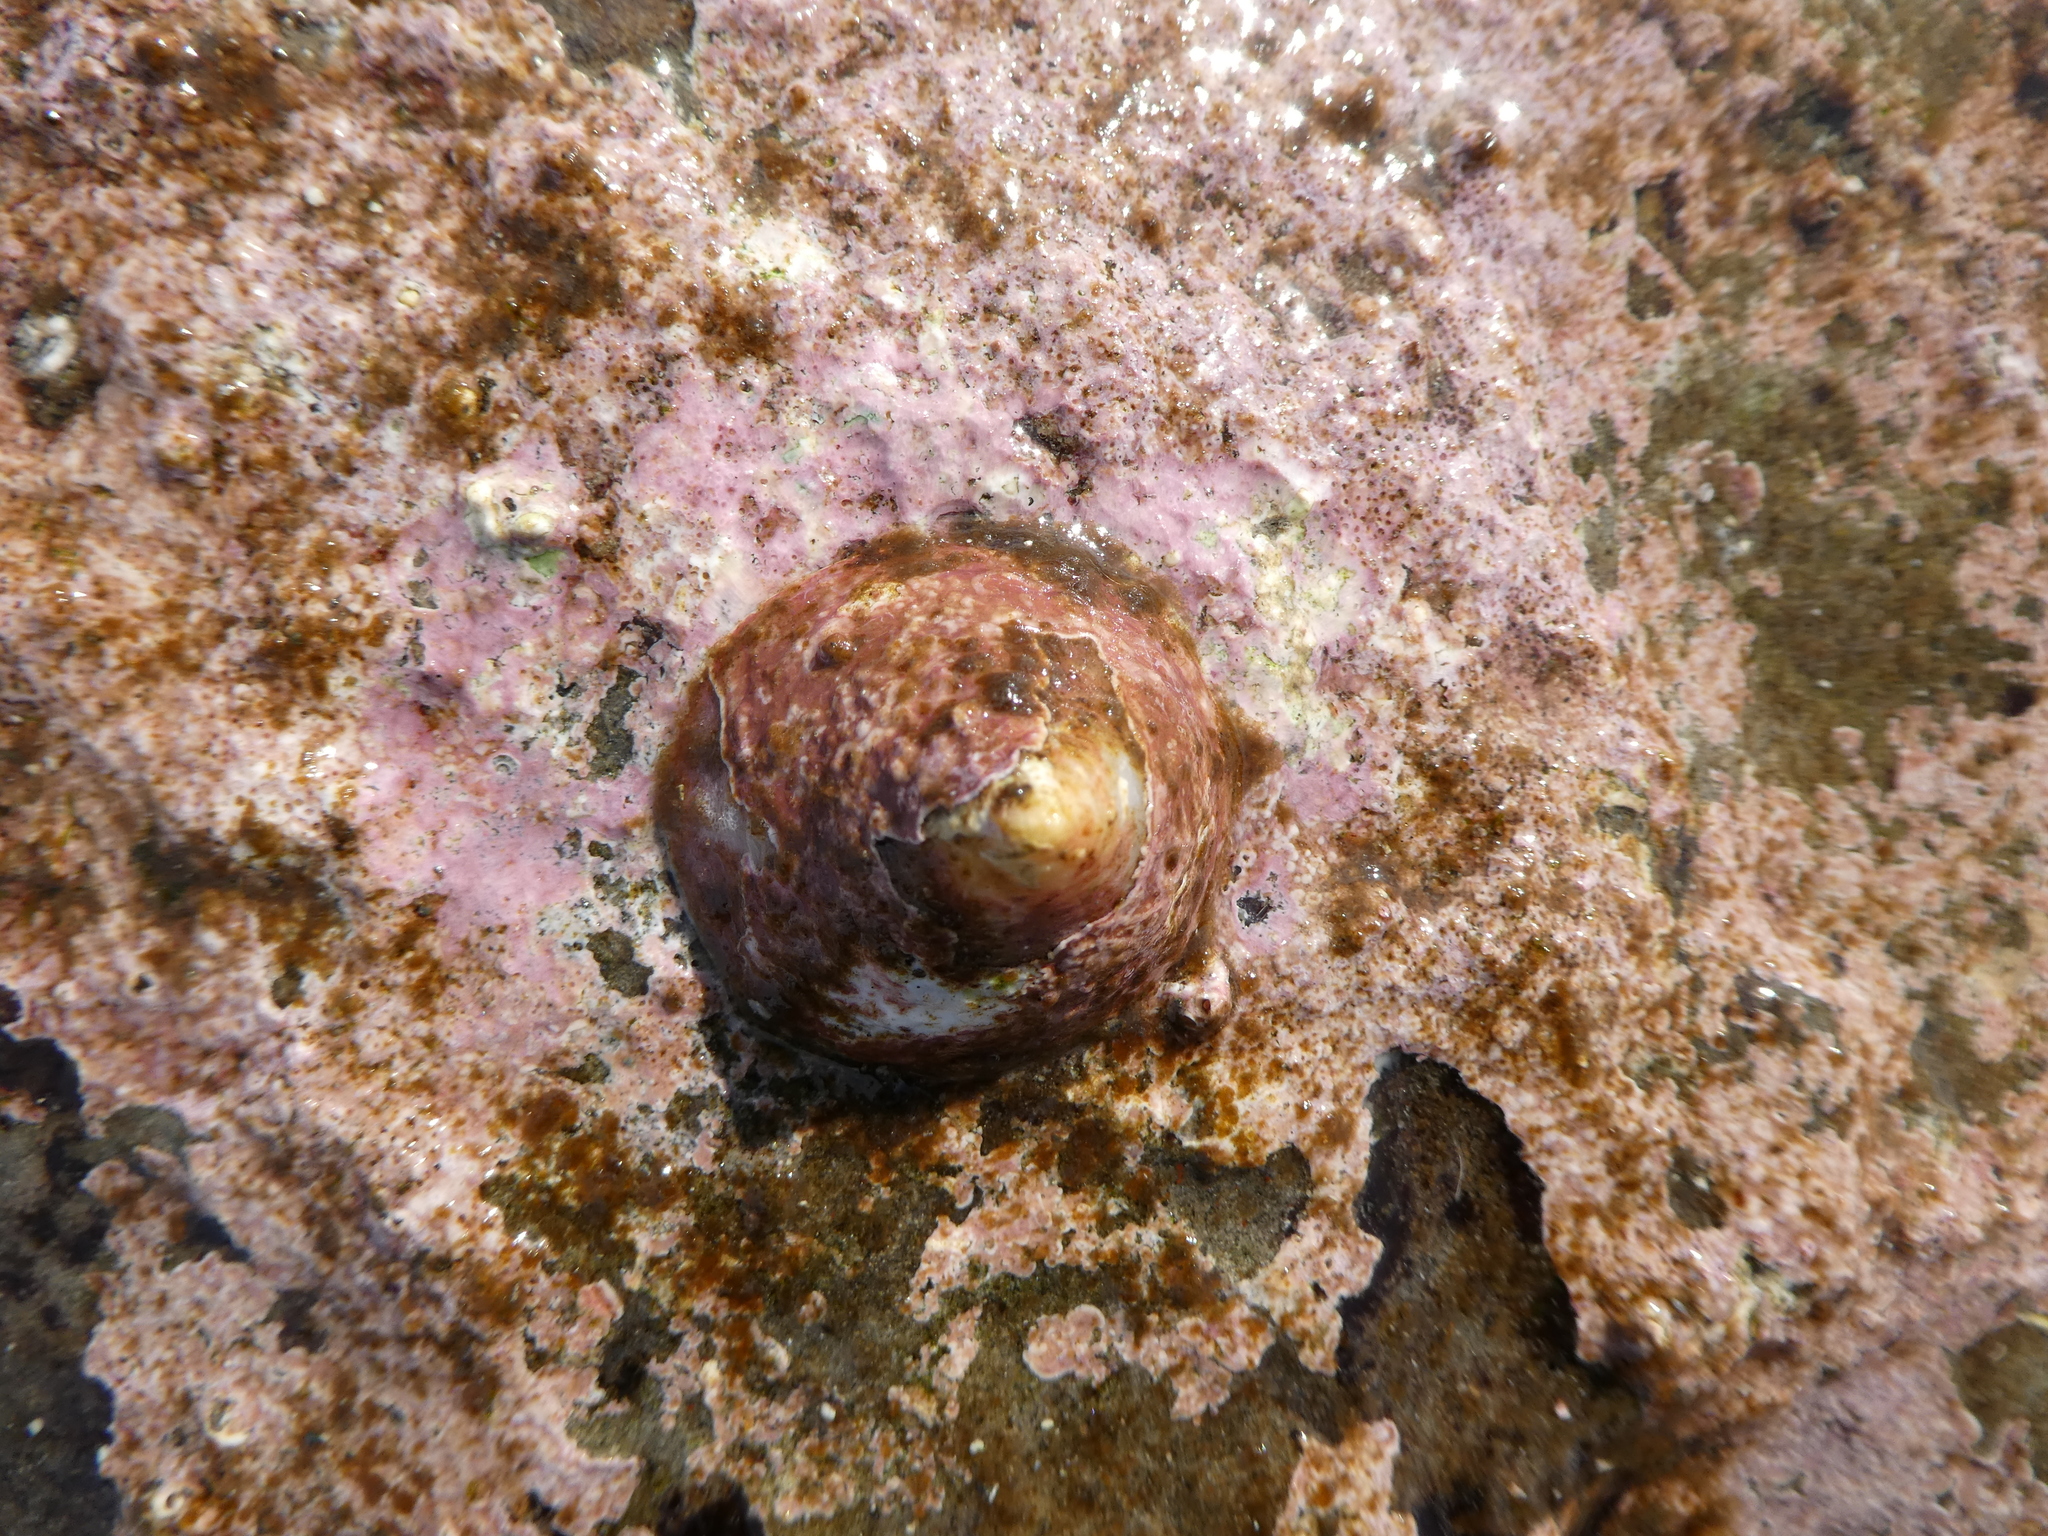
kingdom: Animalia
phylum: Mollusca
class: Gastropoda
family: Acmaeidae
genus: Acmaea
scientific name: Acmaea mitra
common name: Pacific white cap limpet
